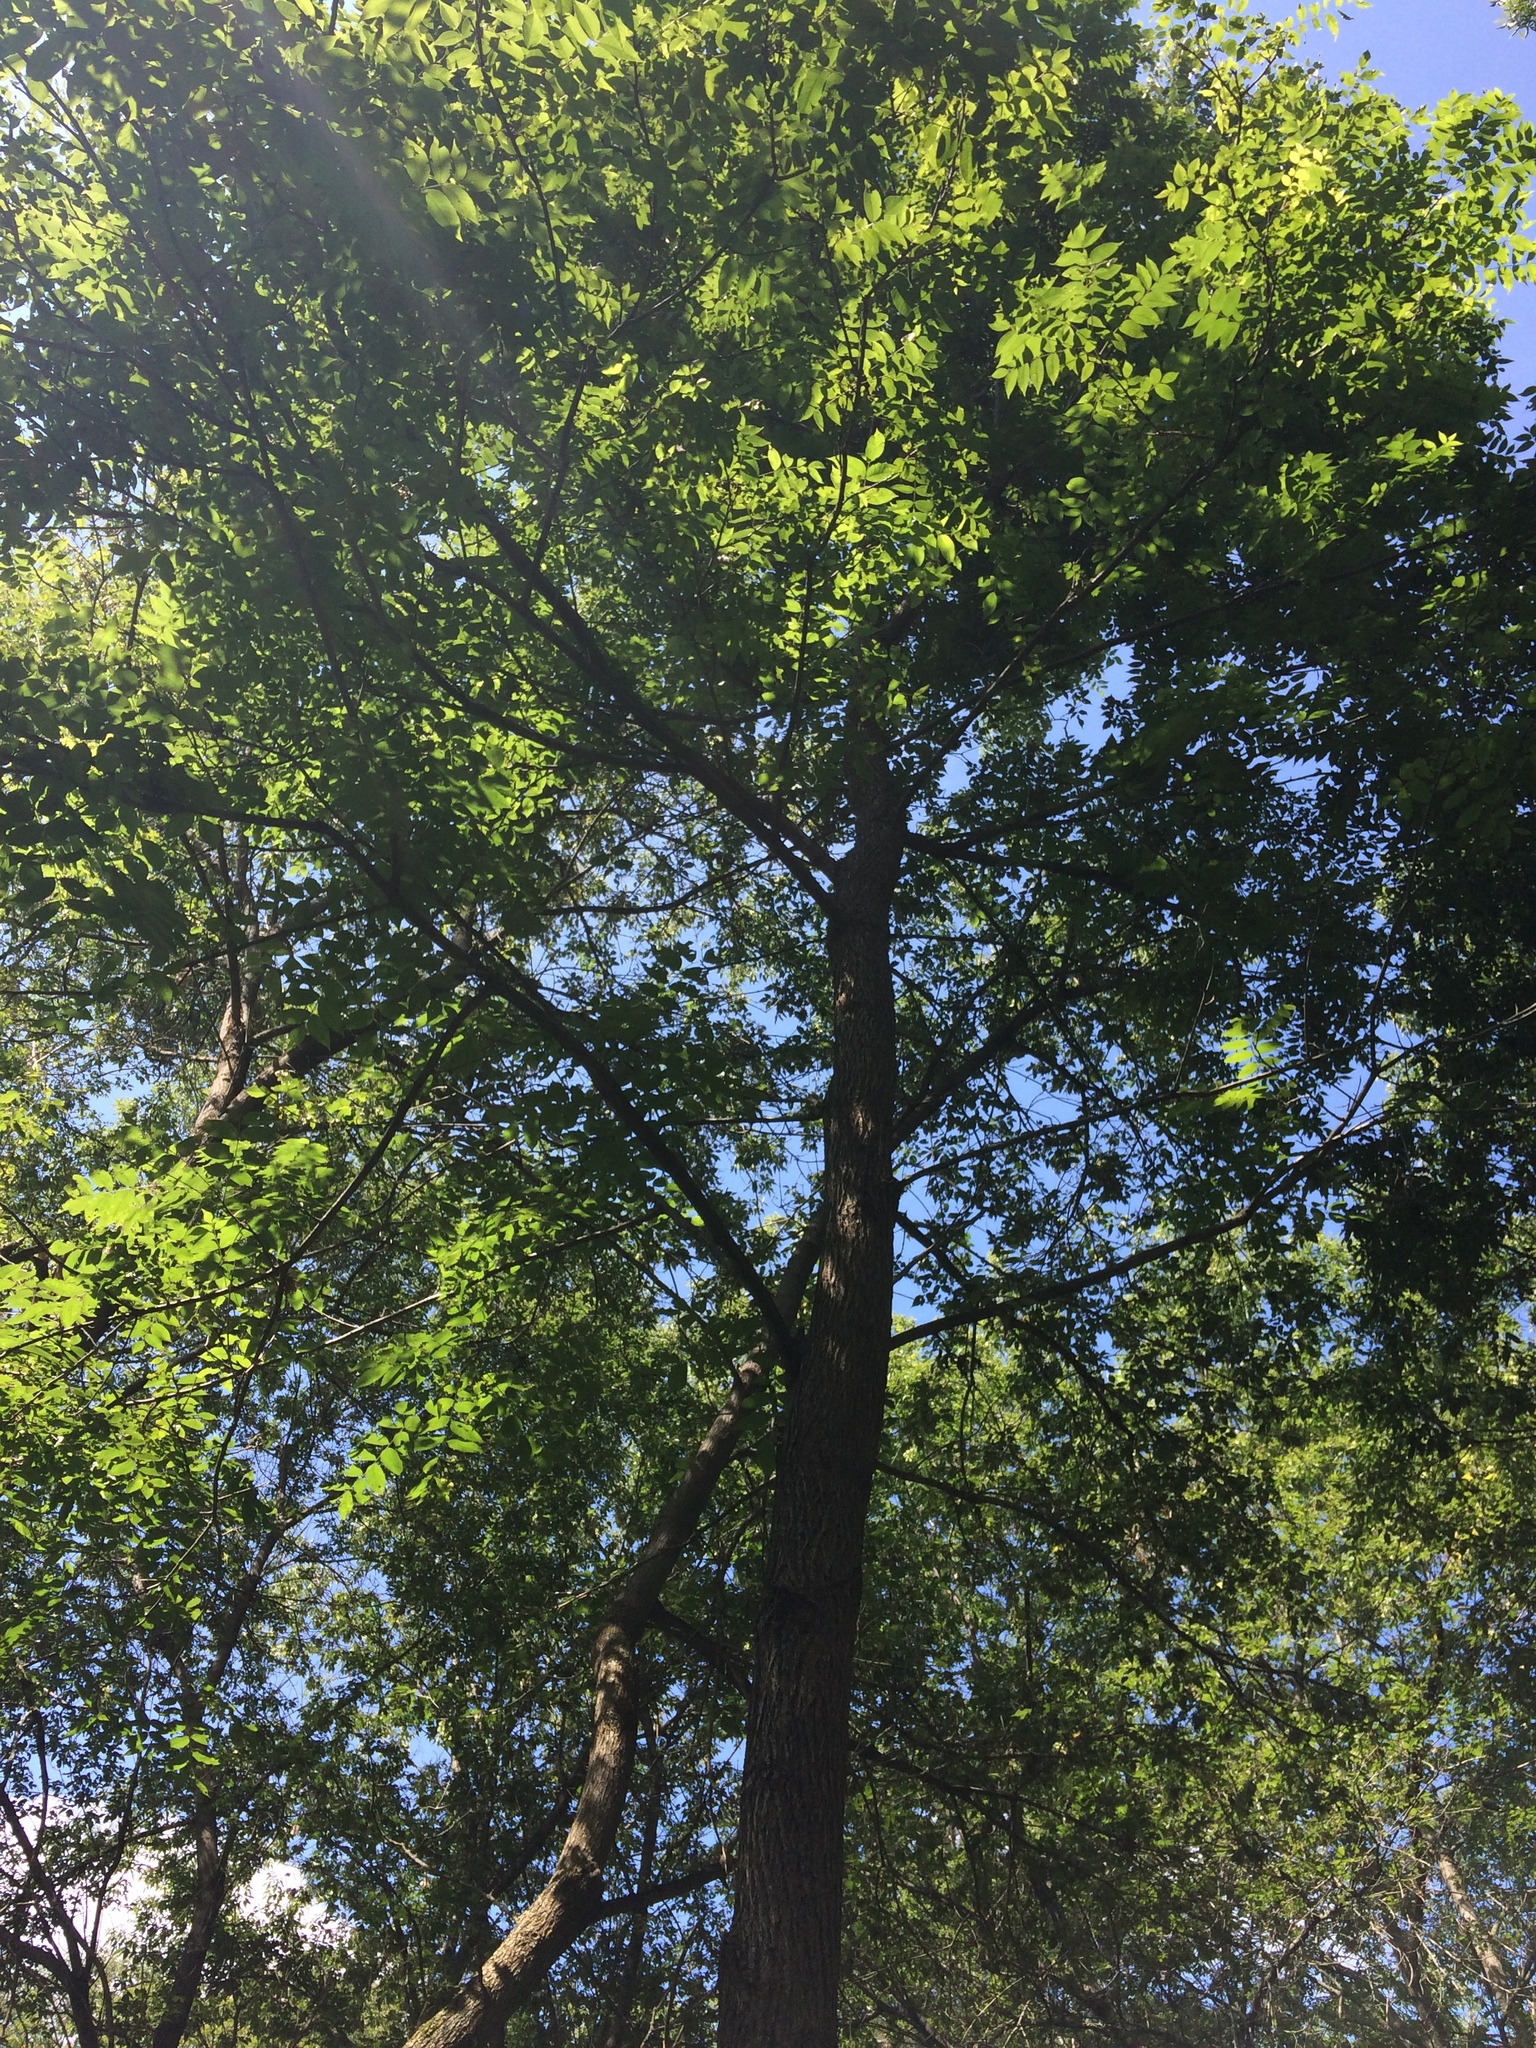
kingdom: Plantae
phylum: Tracheophyta
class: Magnoliopsida
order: Fagales
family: Juglandaceae
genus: Juglans
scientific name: Juglans nigra
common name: Black walnut
